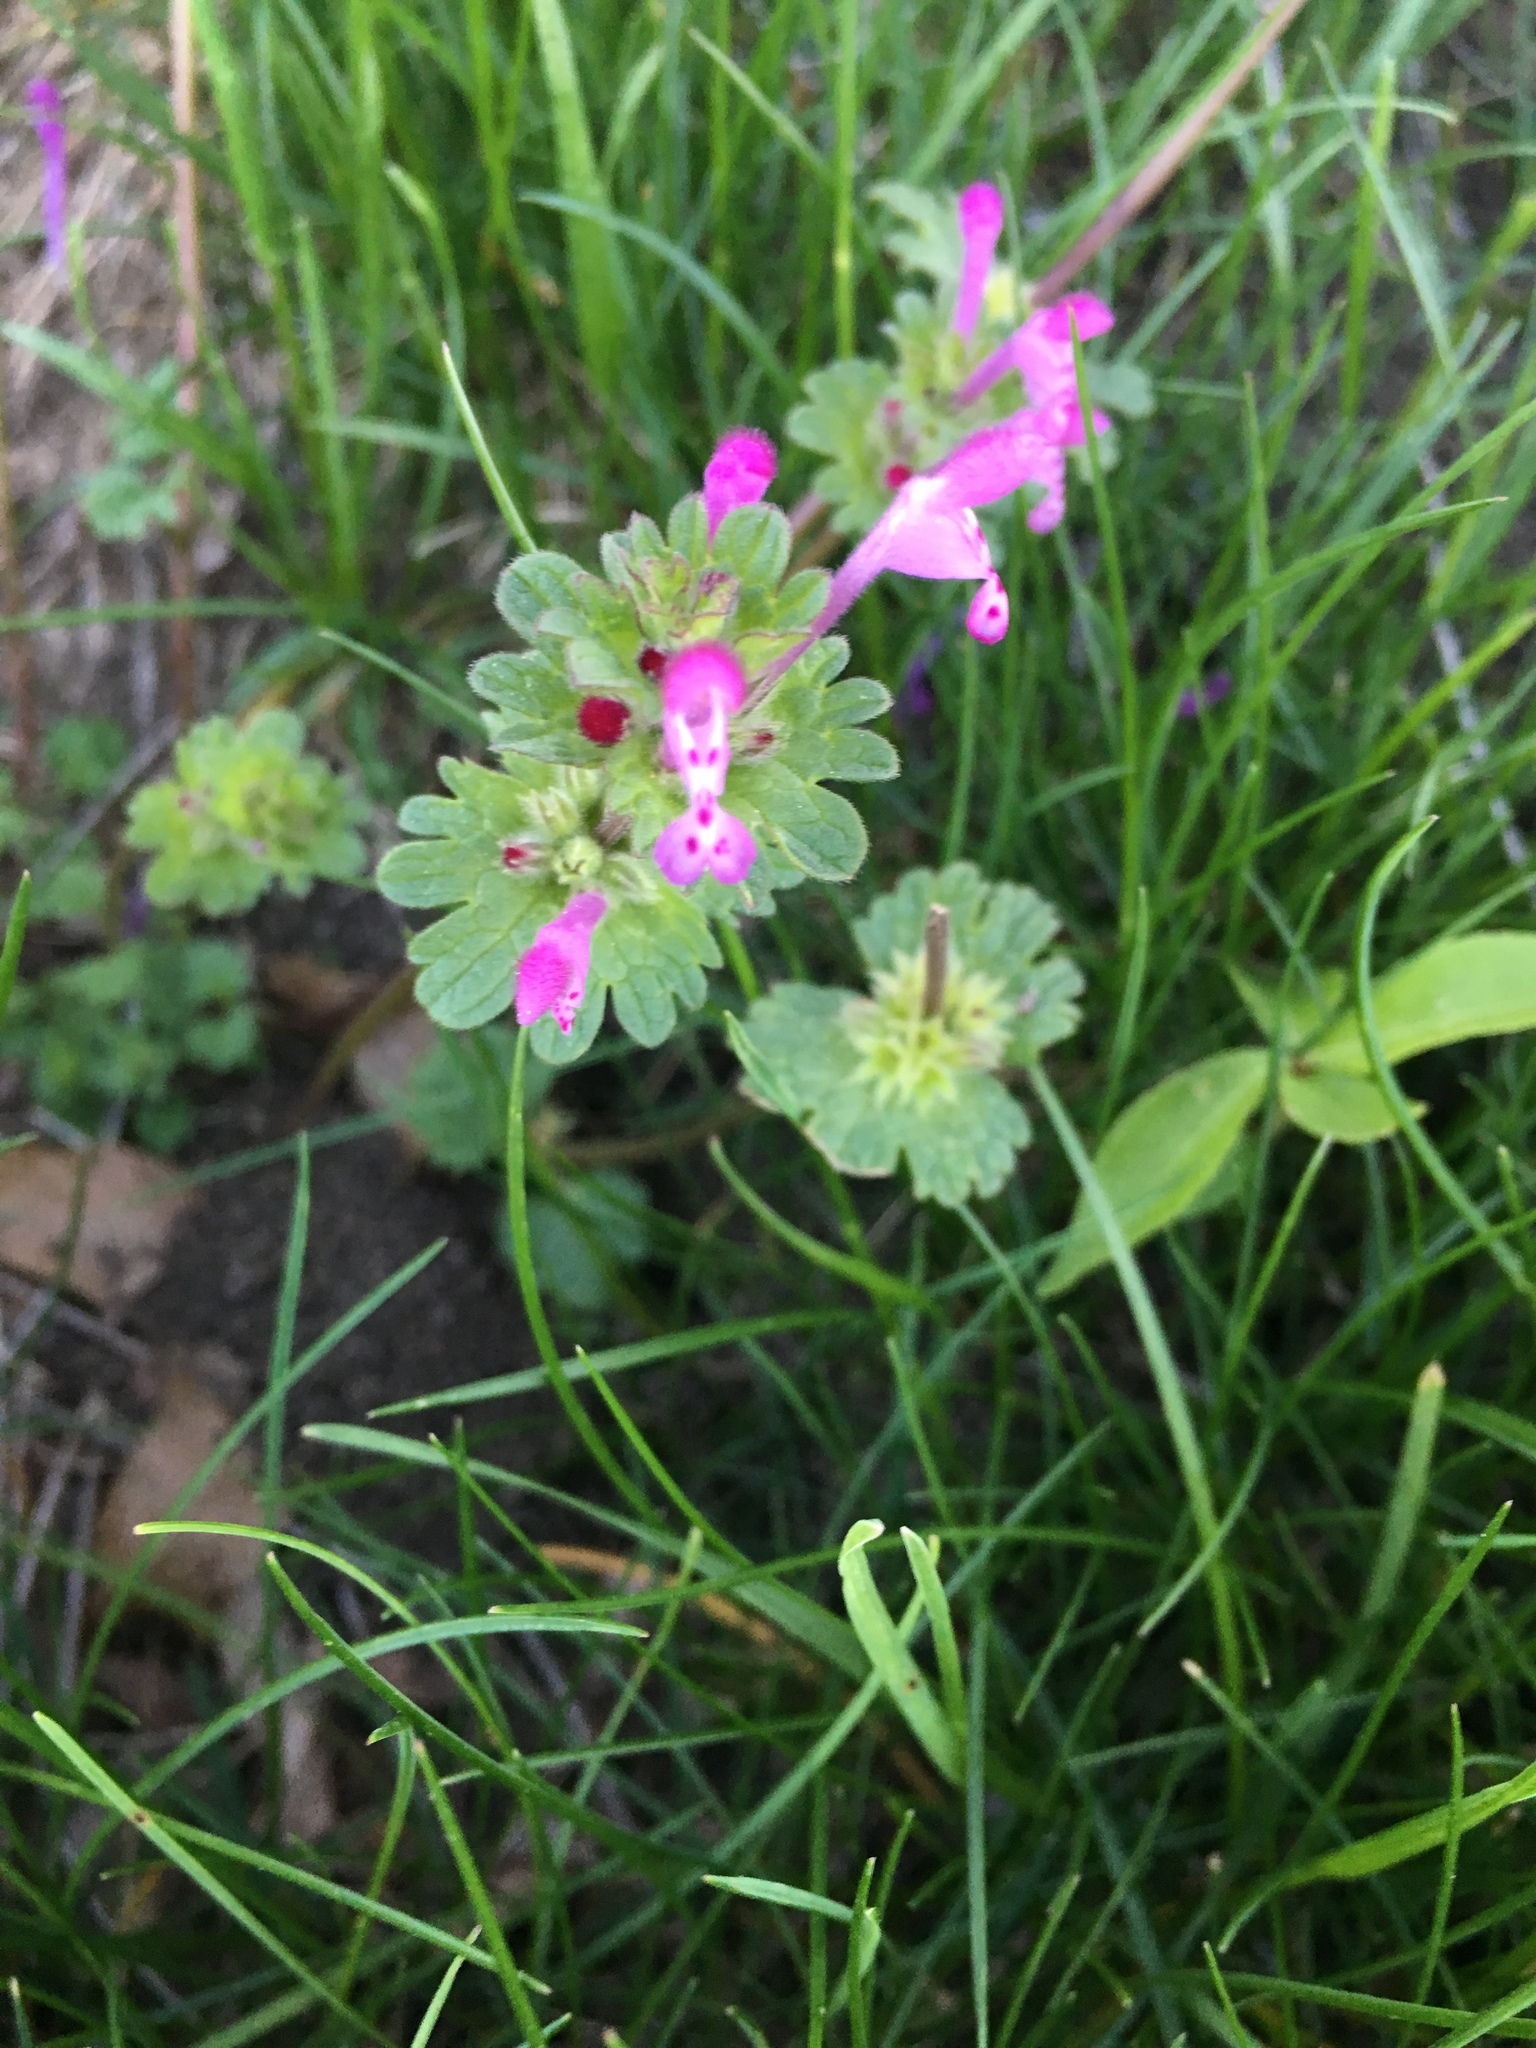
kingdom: Plantae
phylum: Tracheophyta
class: Magnoliopsida
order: Lamiales
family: Lamiaceae
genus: Lamium
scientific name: Lamium amplexicaule
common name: Henbit dead-nettle
